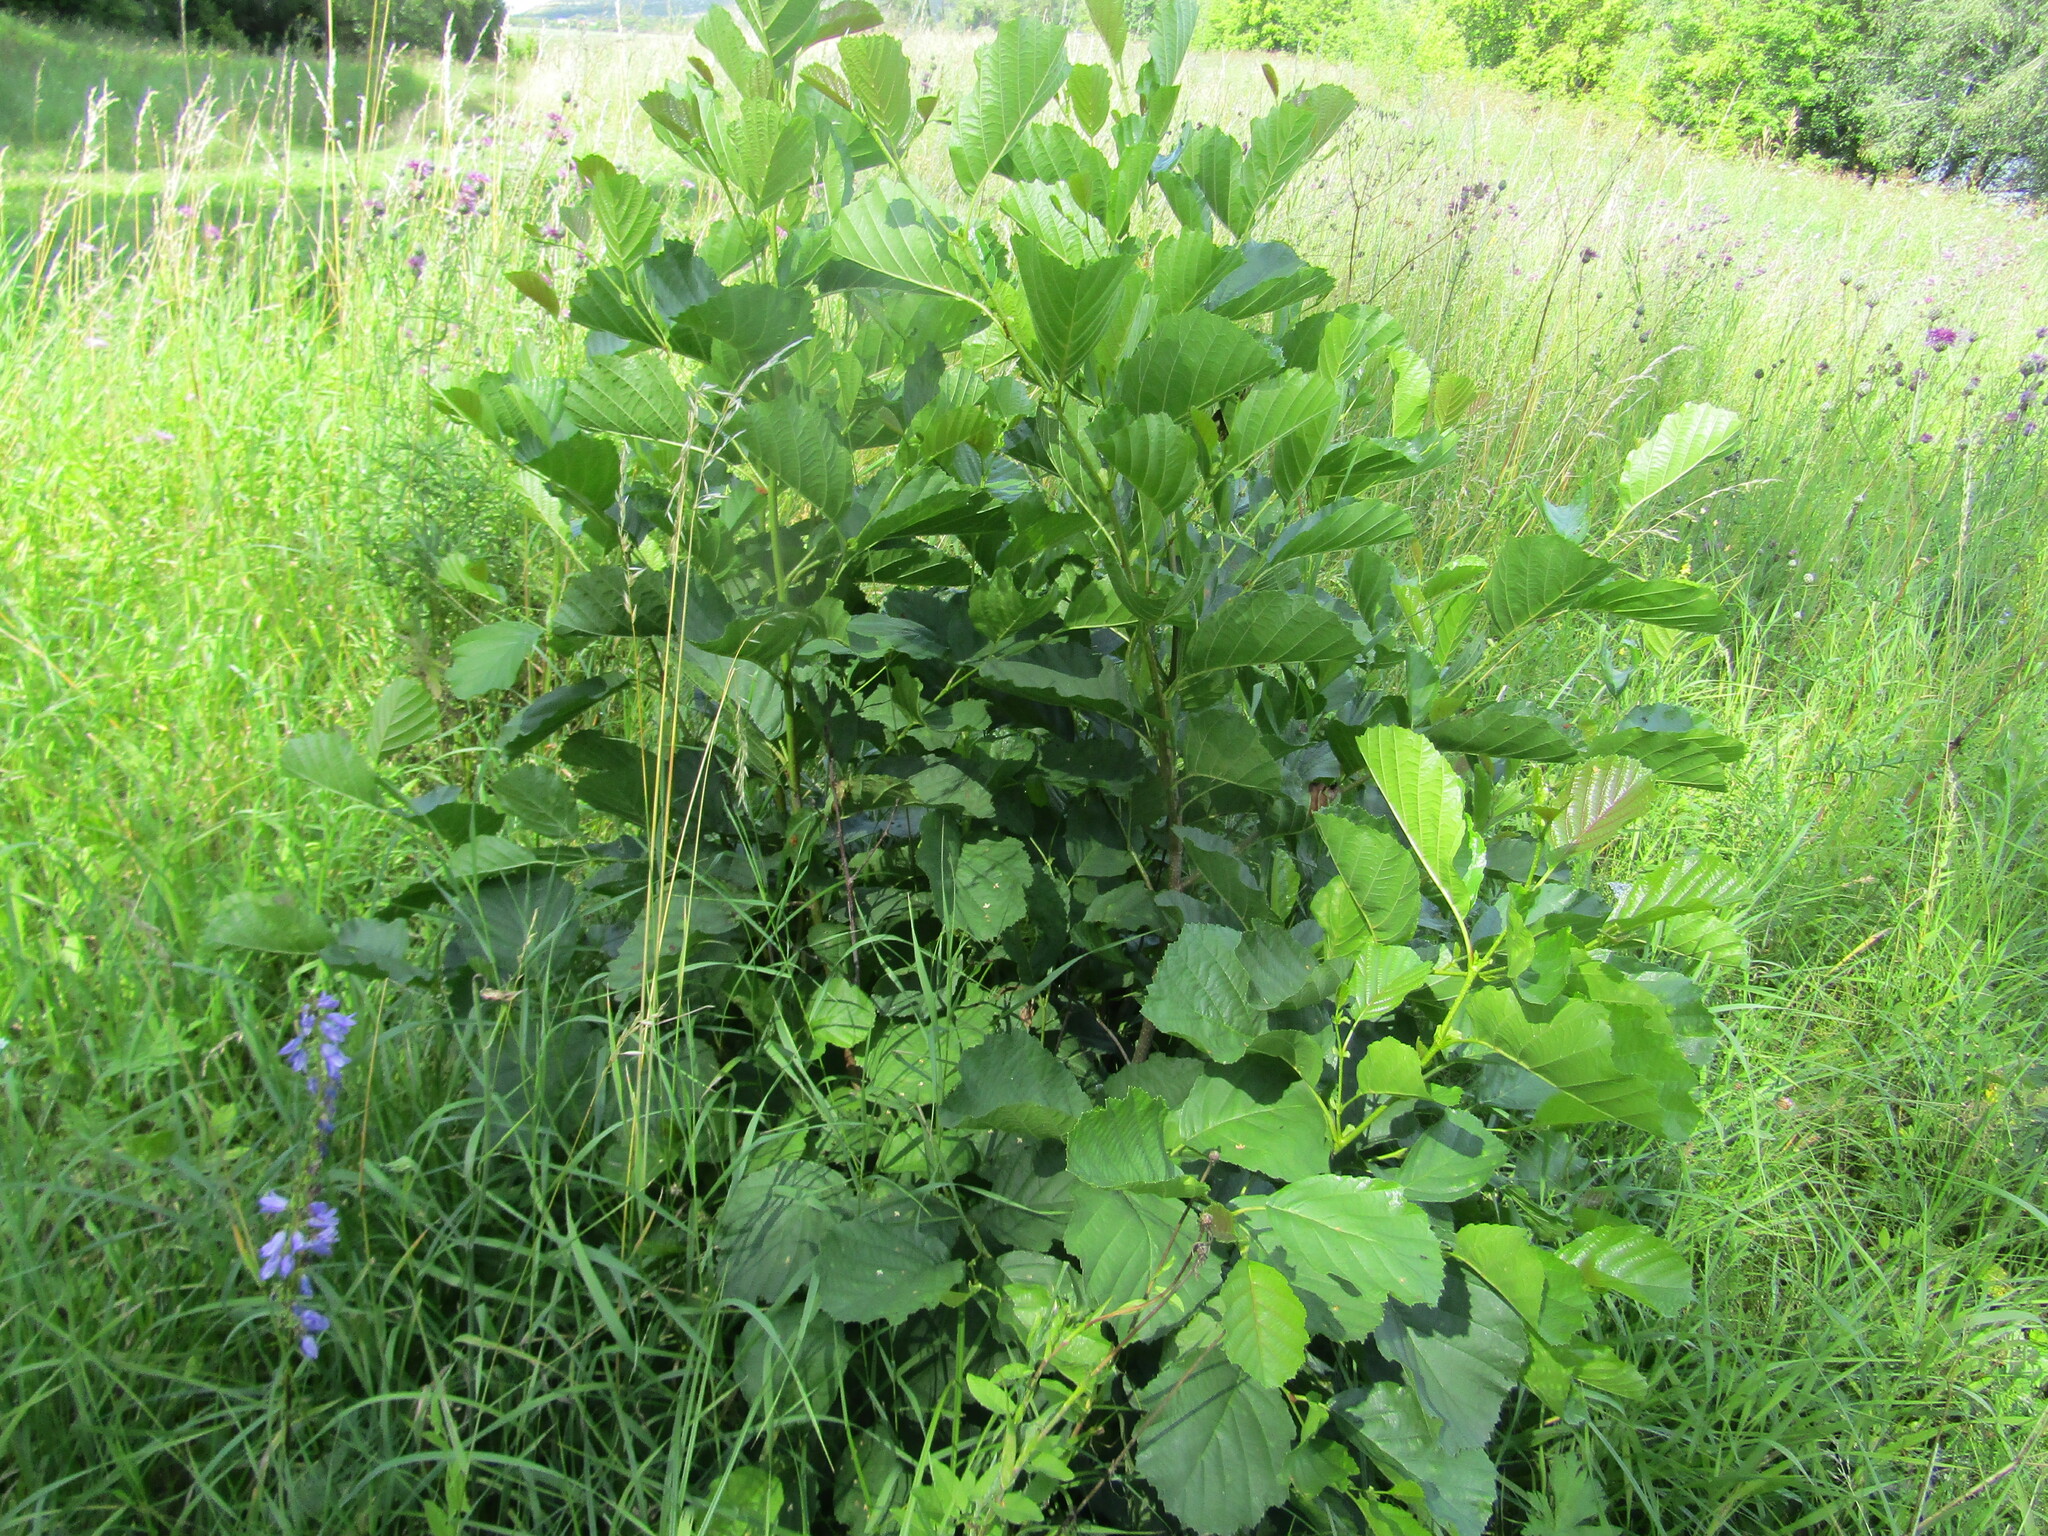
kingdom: Plantae
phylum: Tracheophyta
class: Magnoliopsida
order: Fagales
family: Betulaceae
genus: Alnus
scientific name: Alnus glutinosa
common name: Black alder
